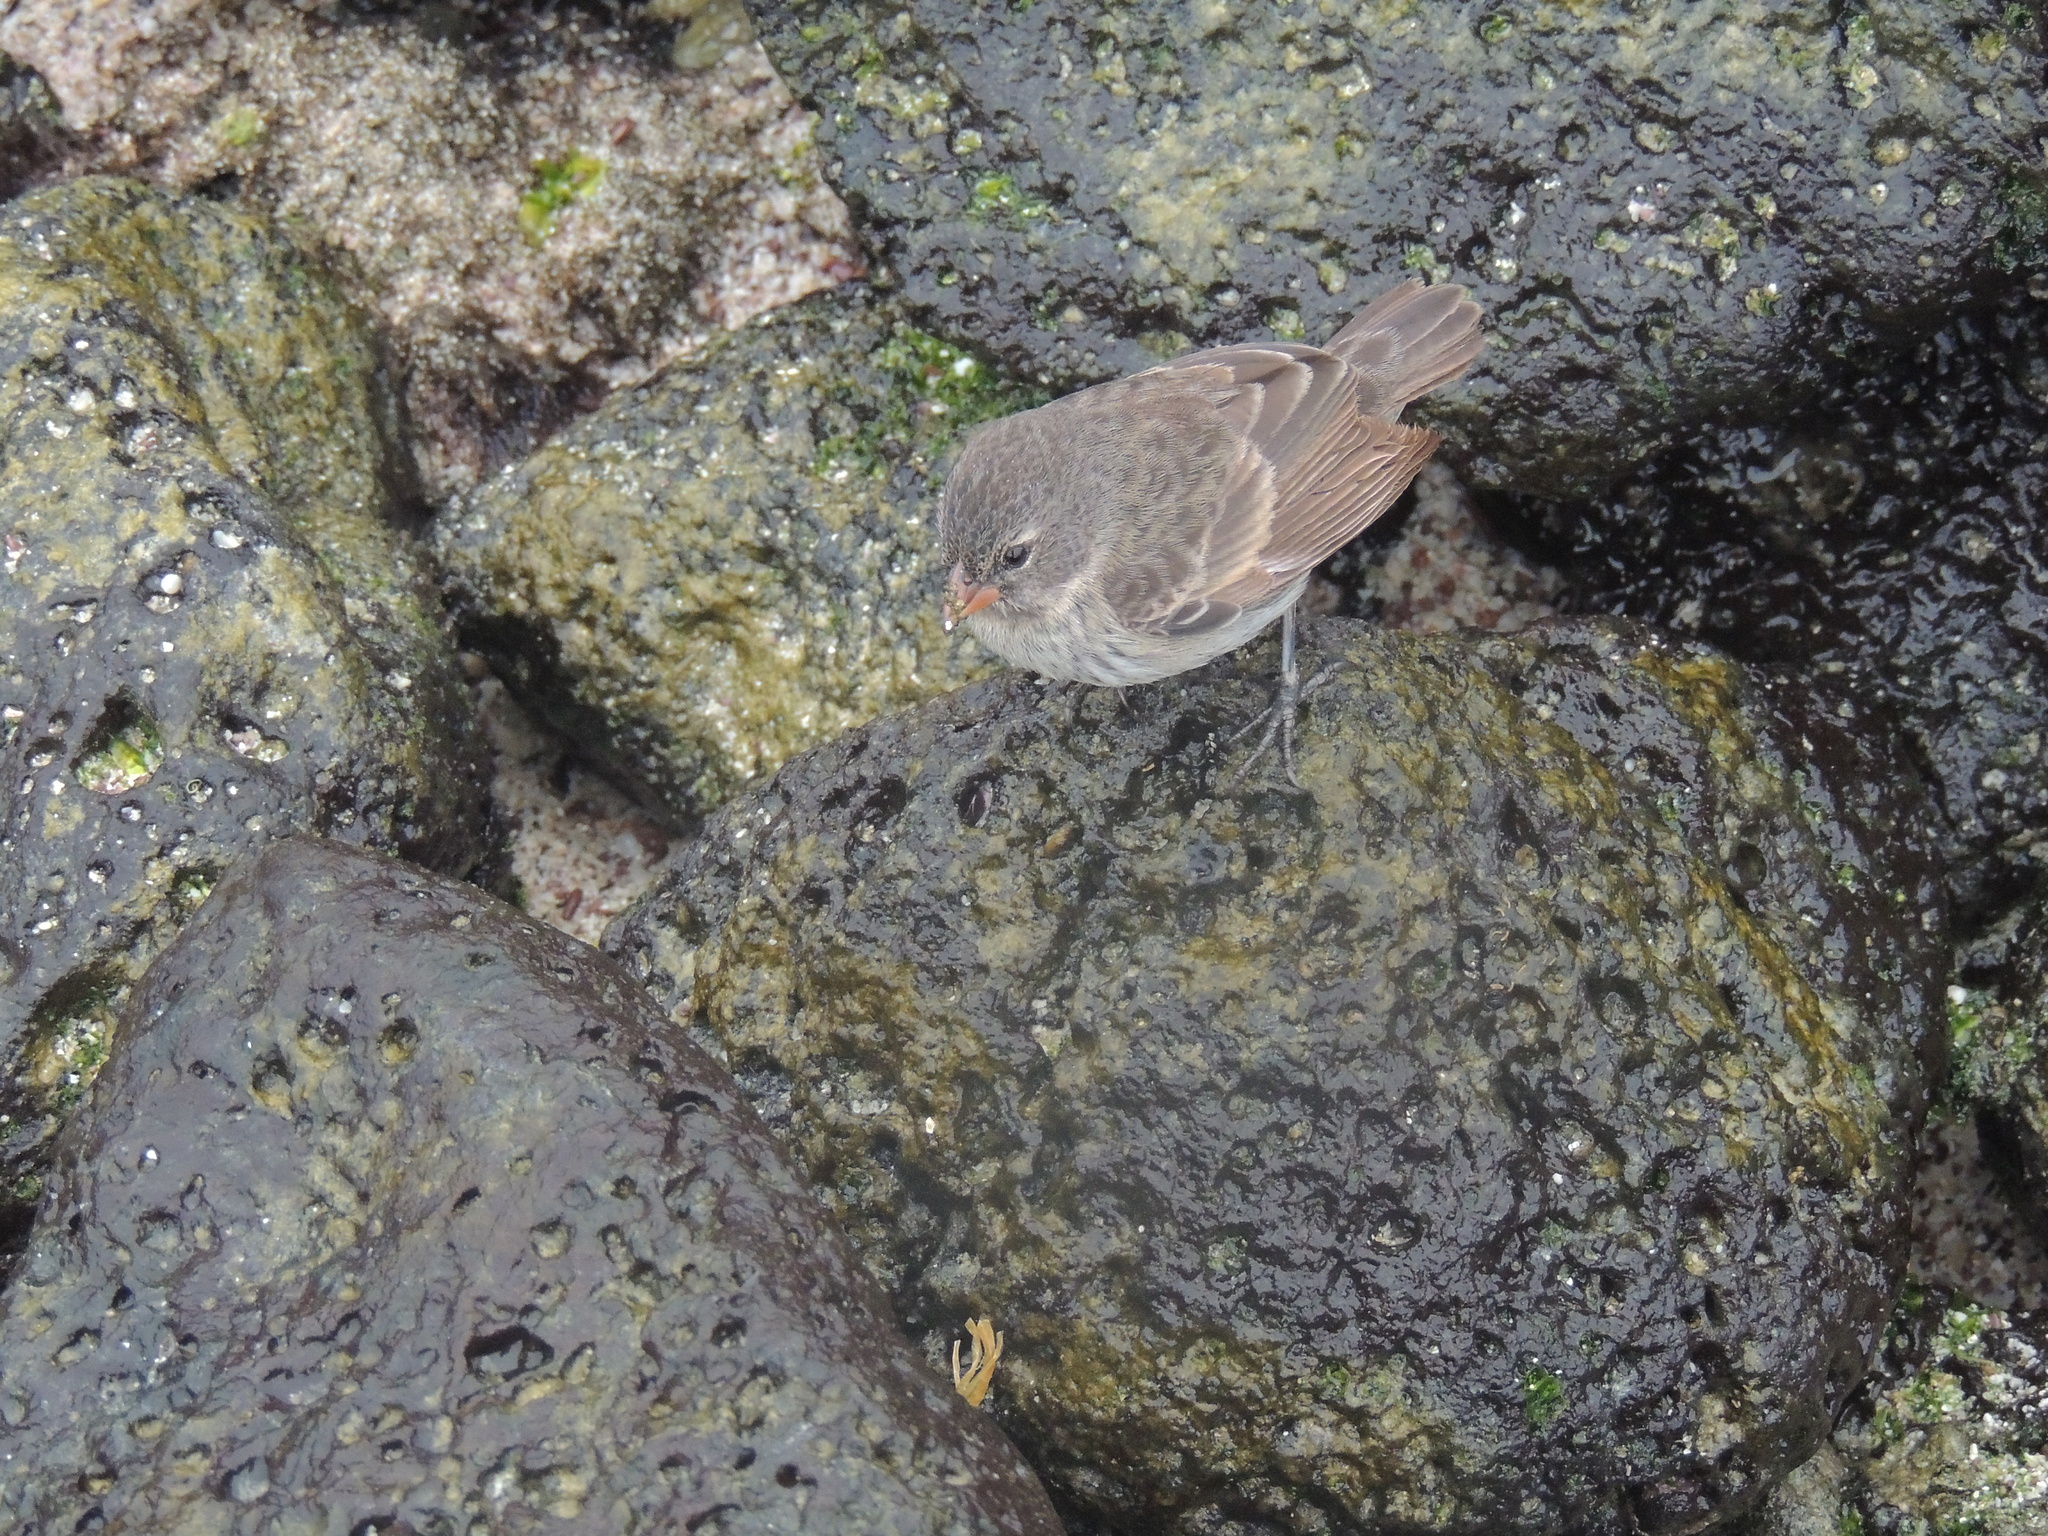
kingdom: Animalia
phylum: Chordata
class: Aves
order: Passeriformes
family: Thraupidae
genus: Geospiza
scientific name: Geospiza fuliginosa
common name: Small ground finch
